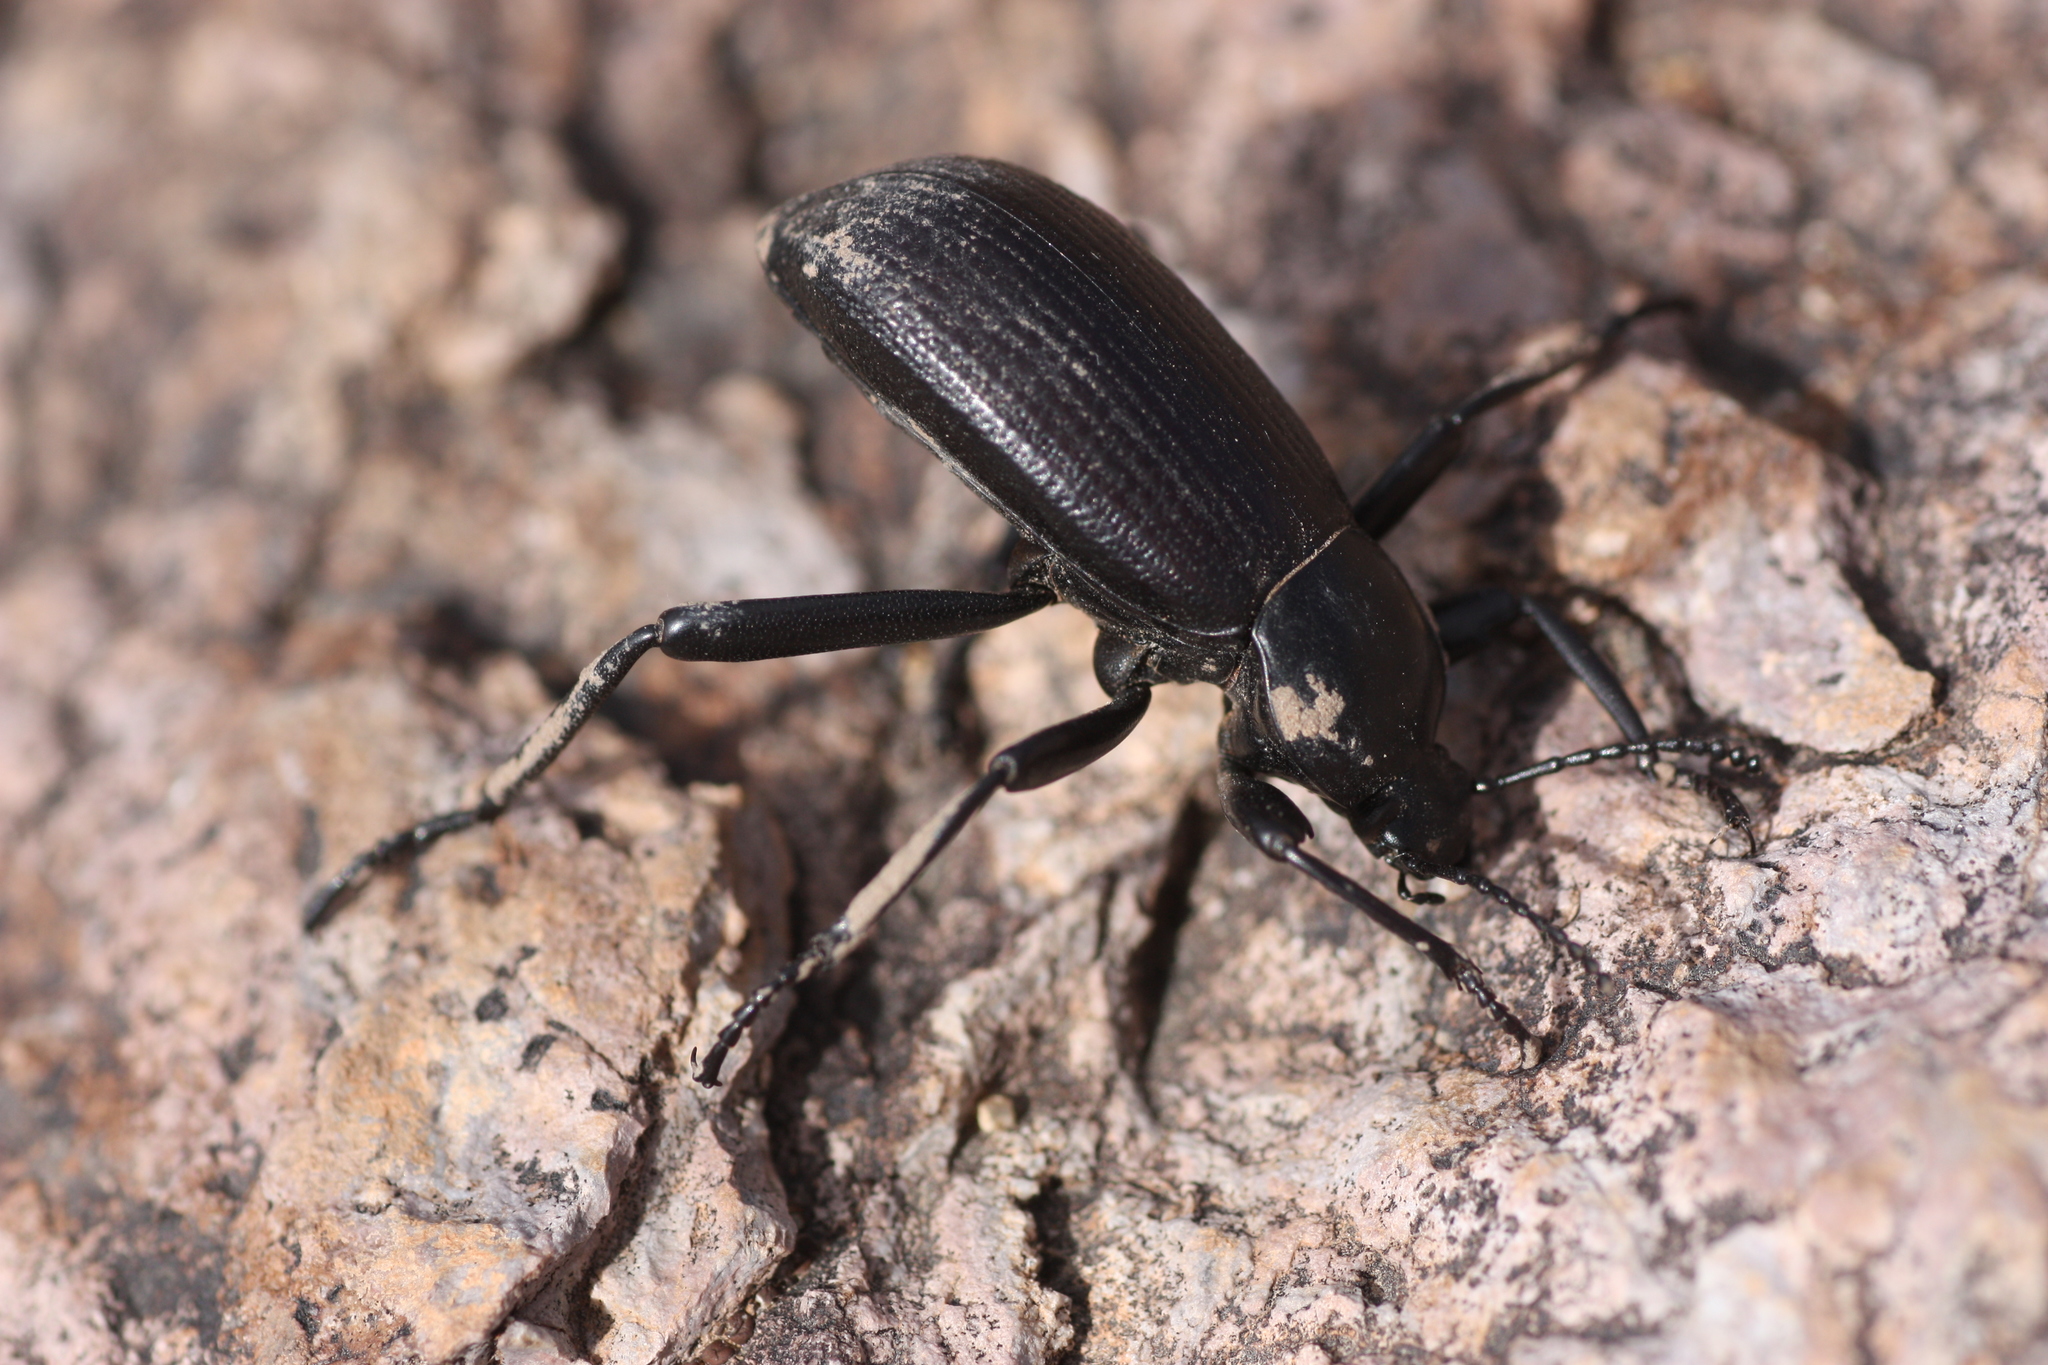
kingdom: Animalia
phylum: Arthropoda
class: Insecta
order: Coleoptera
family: Tenebrionidae
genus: Eleodes
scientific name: Eleodes obscura
